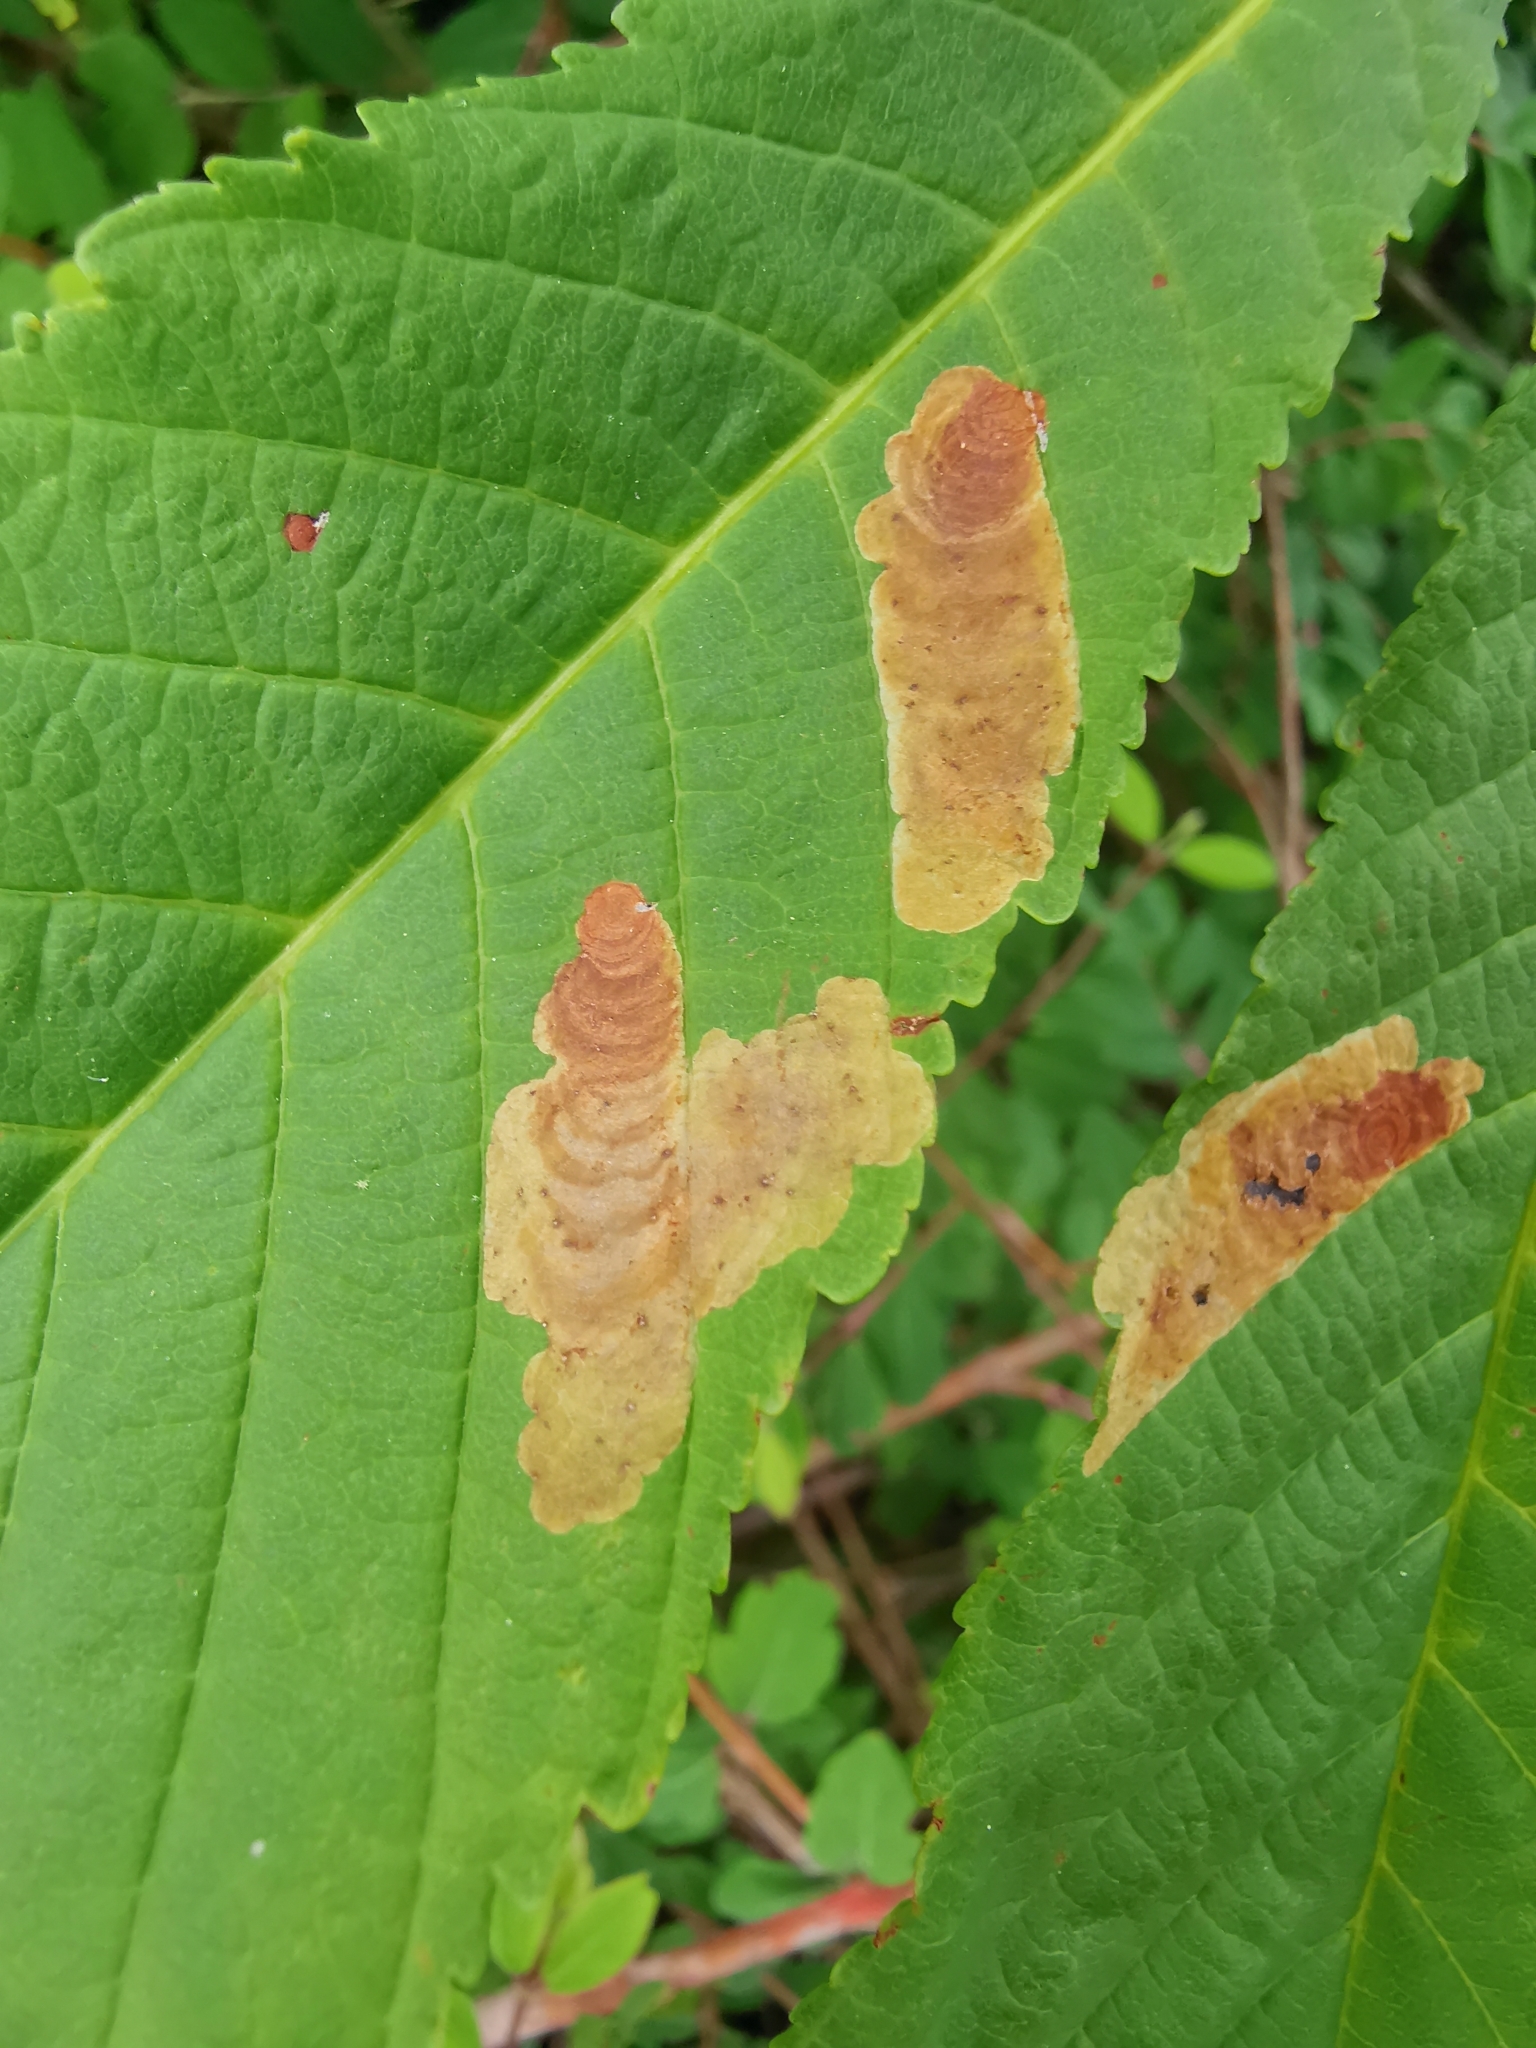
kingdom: Animalia
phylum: Arthropoda
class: Insecta
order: Lepidoptera
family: Gracillariidae
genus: Cameraria
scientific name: Cameraria ohridella
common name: Horse-chestnut leaf-miner
